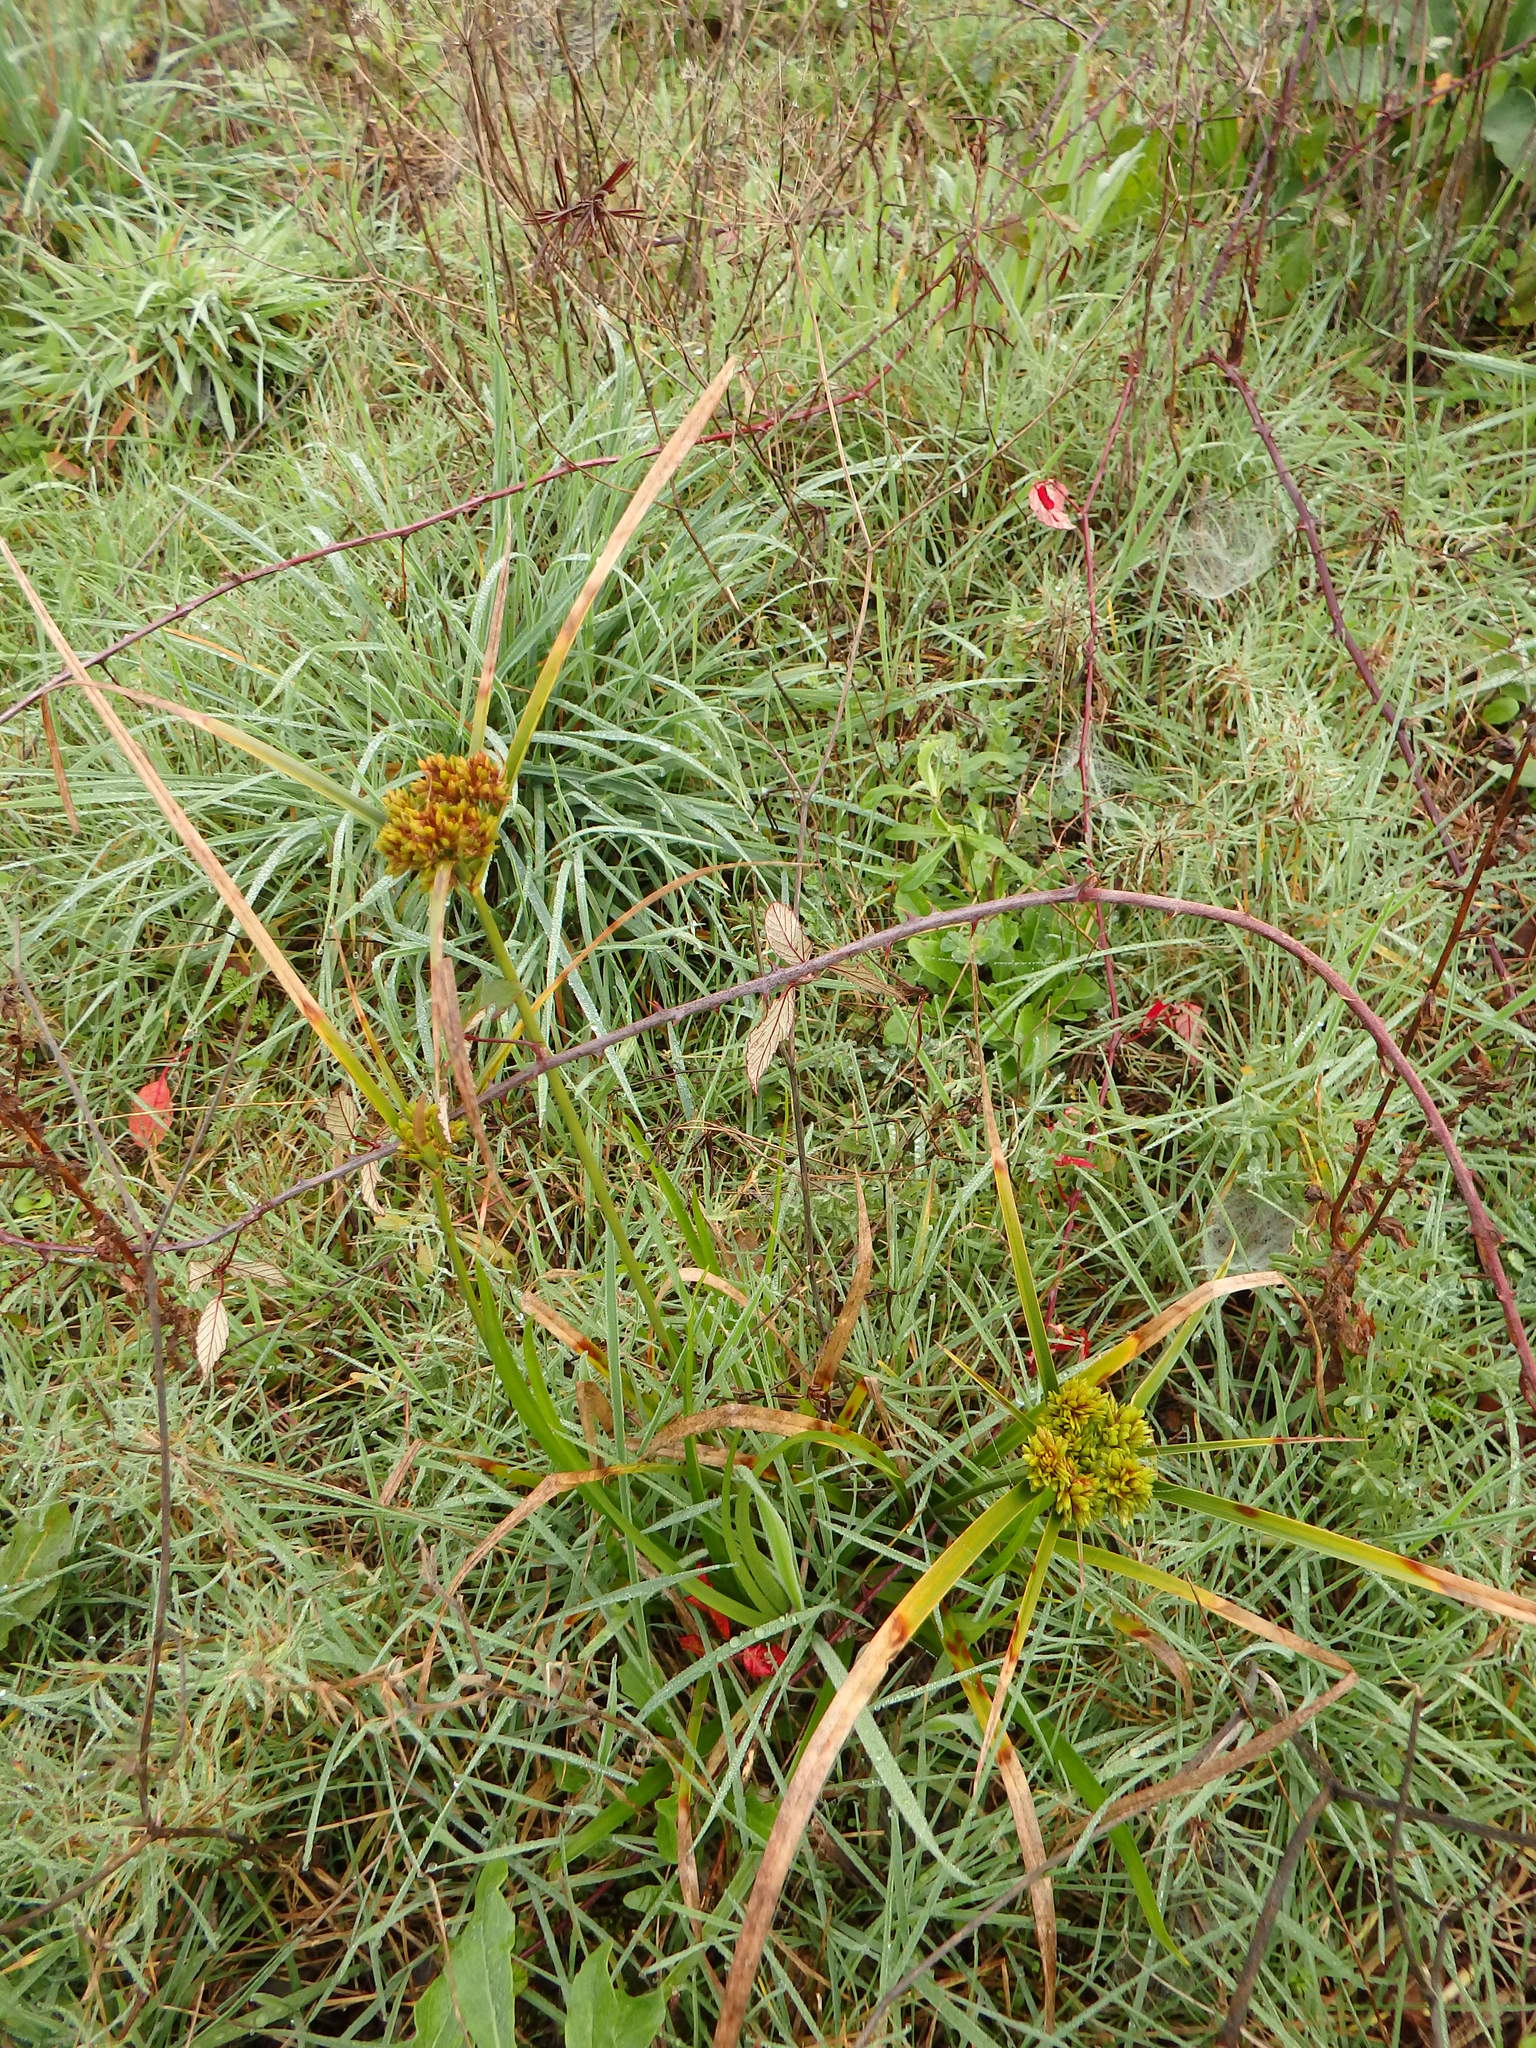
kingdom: Plantae
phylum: Tracheophyta
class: Liliopsida
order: Poales
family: Cyperaceae
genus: Cyperus
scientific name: Cyperus eragrostis
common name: Tall flatsedge
